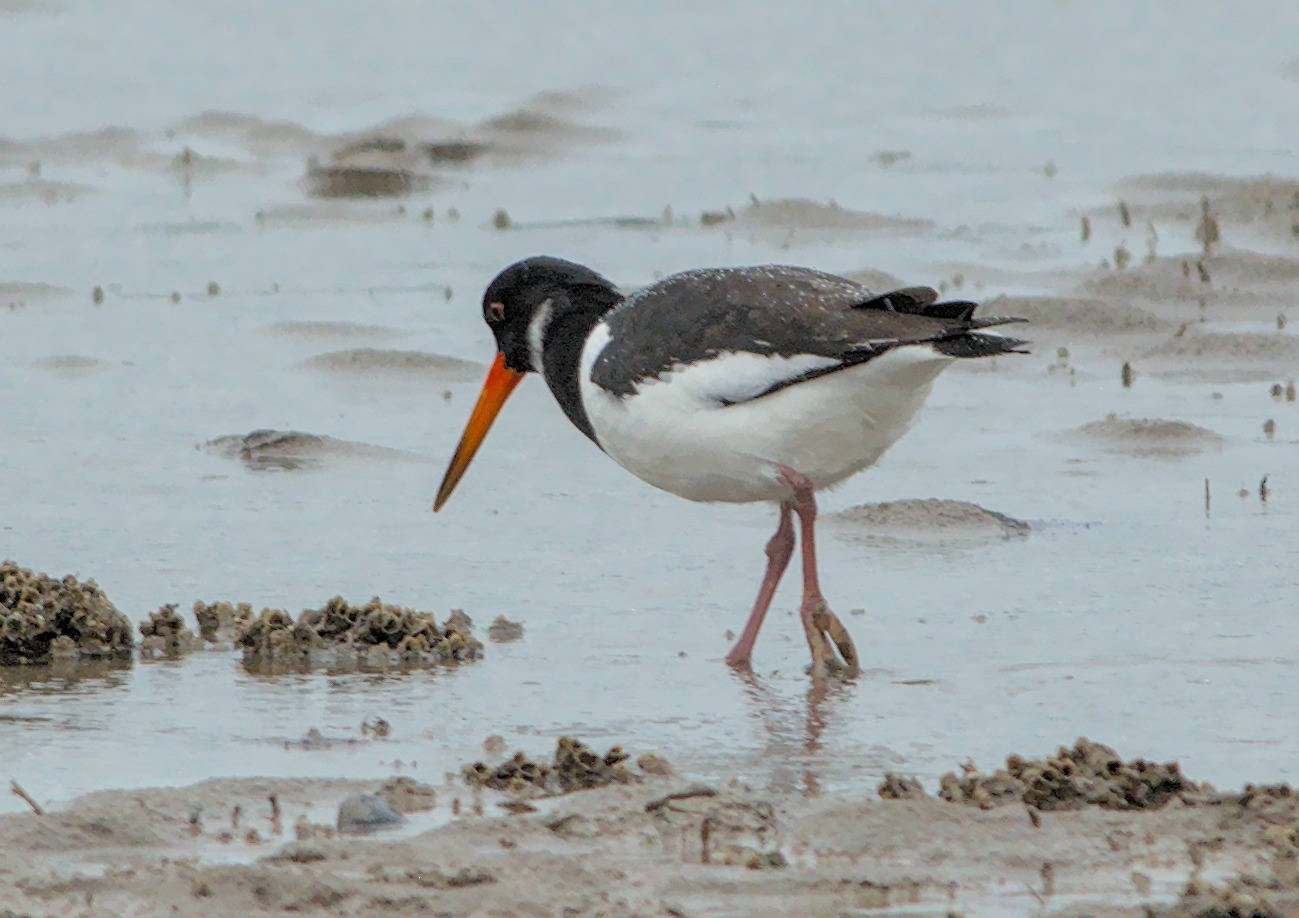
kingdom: Animalia
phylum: Chordata
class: Aves
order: Charadriiformes
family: Haematopodidae
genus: Haematopus
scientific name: Haematopus ostralegus
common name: Eurasian oystercatcher
